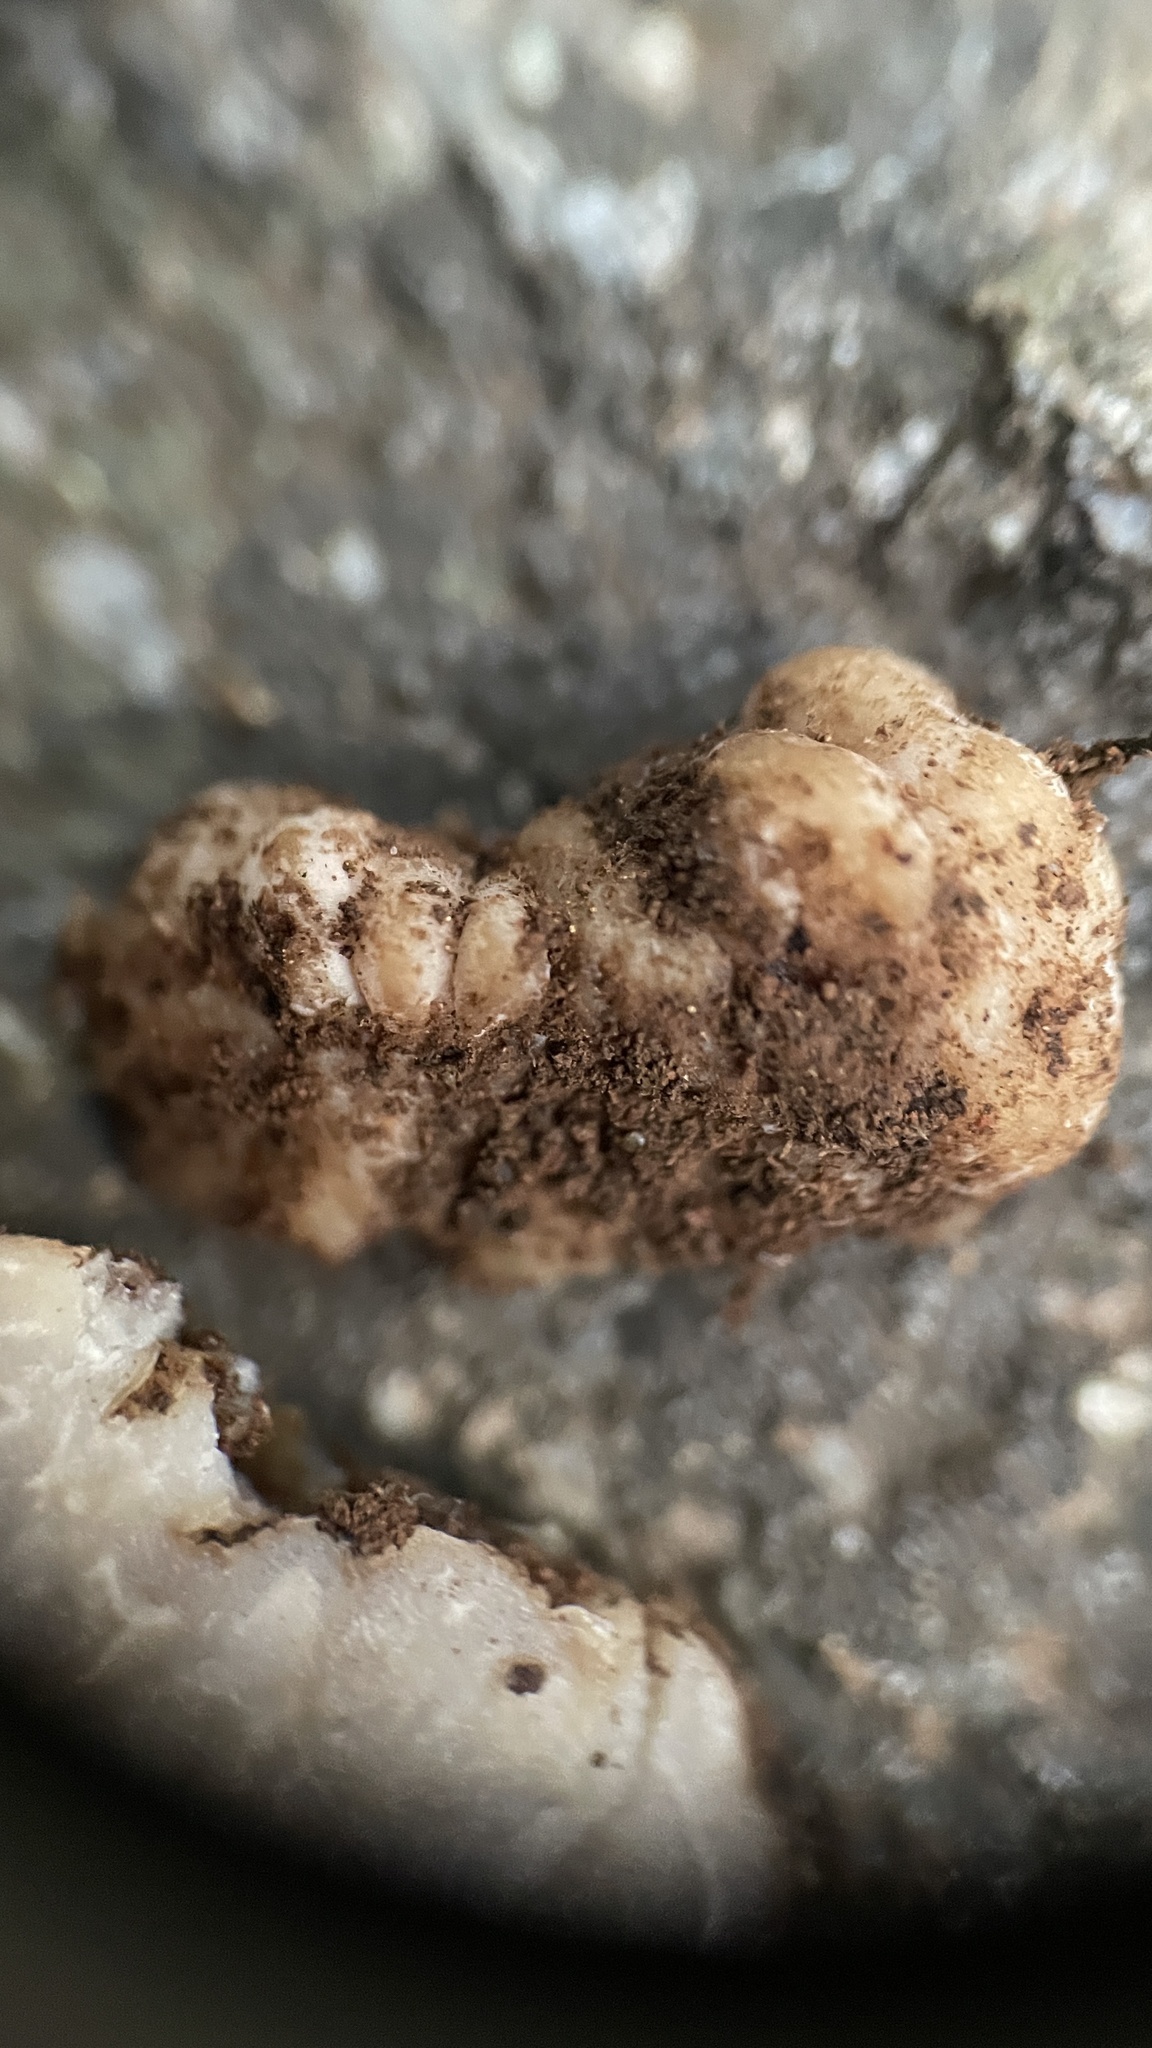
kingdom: Fungi
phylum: Ascomycota
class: Pezizomycetes
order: Pezizales
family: Tuberaceae
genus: Tuber
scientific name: Tuber anniae
